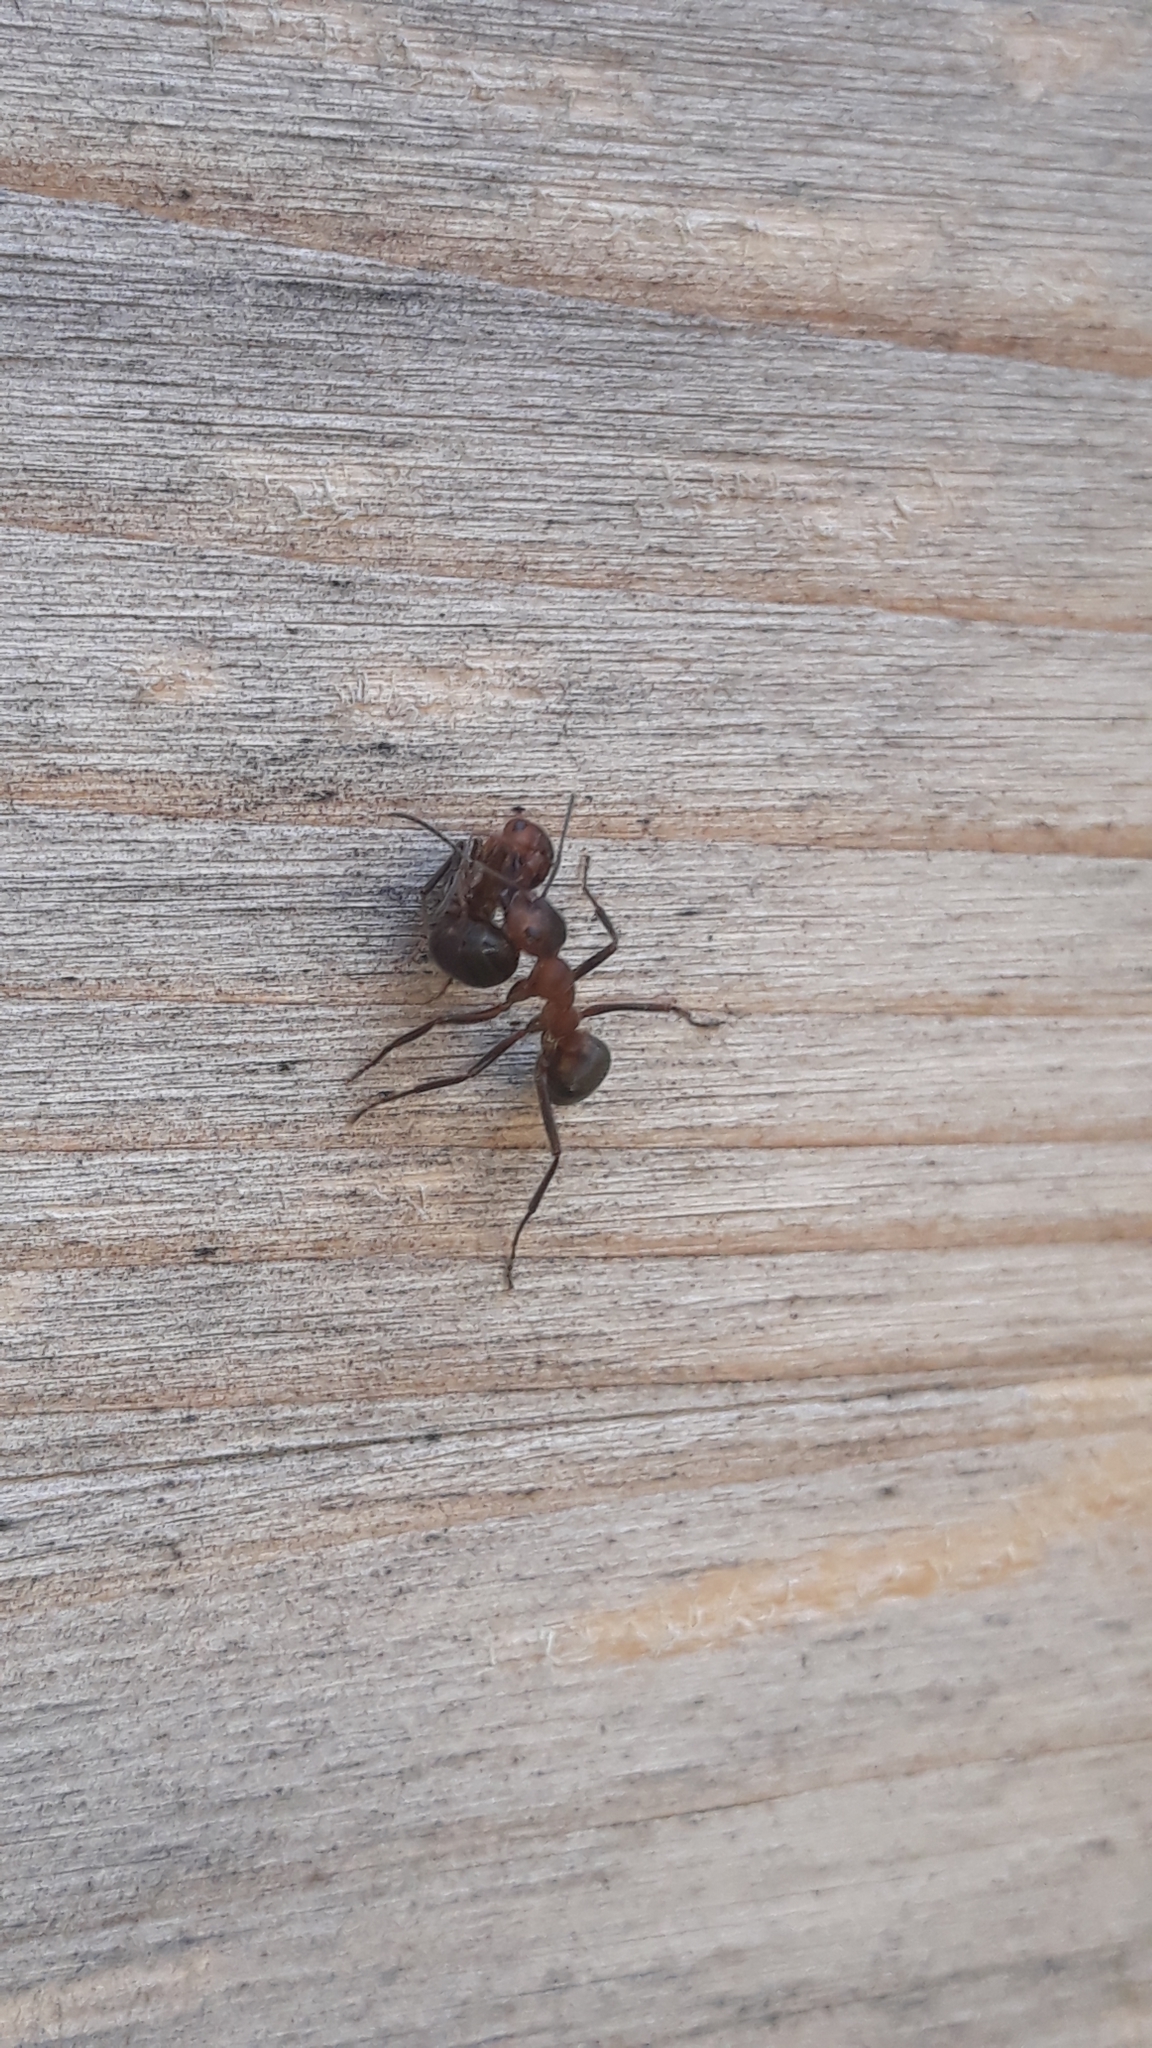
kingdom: Animalia
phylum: Arthropoda
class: Insecta
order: Hymenoptera
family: Formicidae
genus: Formica
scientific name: Formica rufa
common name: Red wood ant
